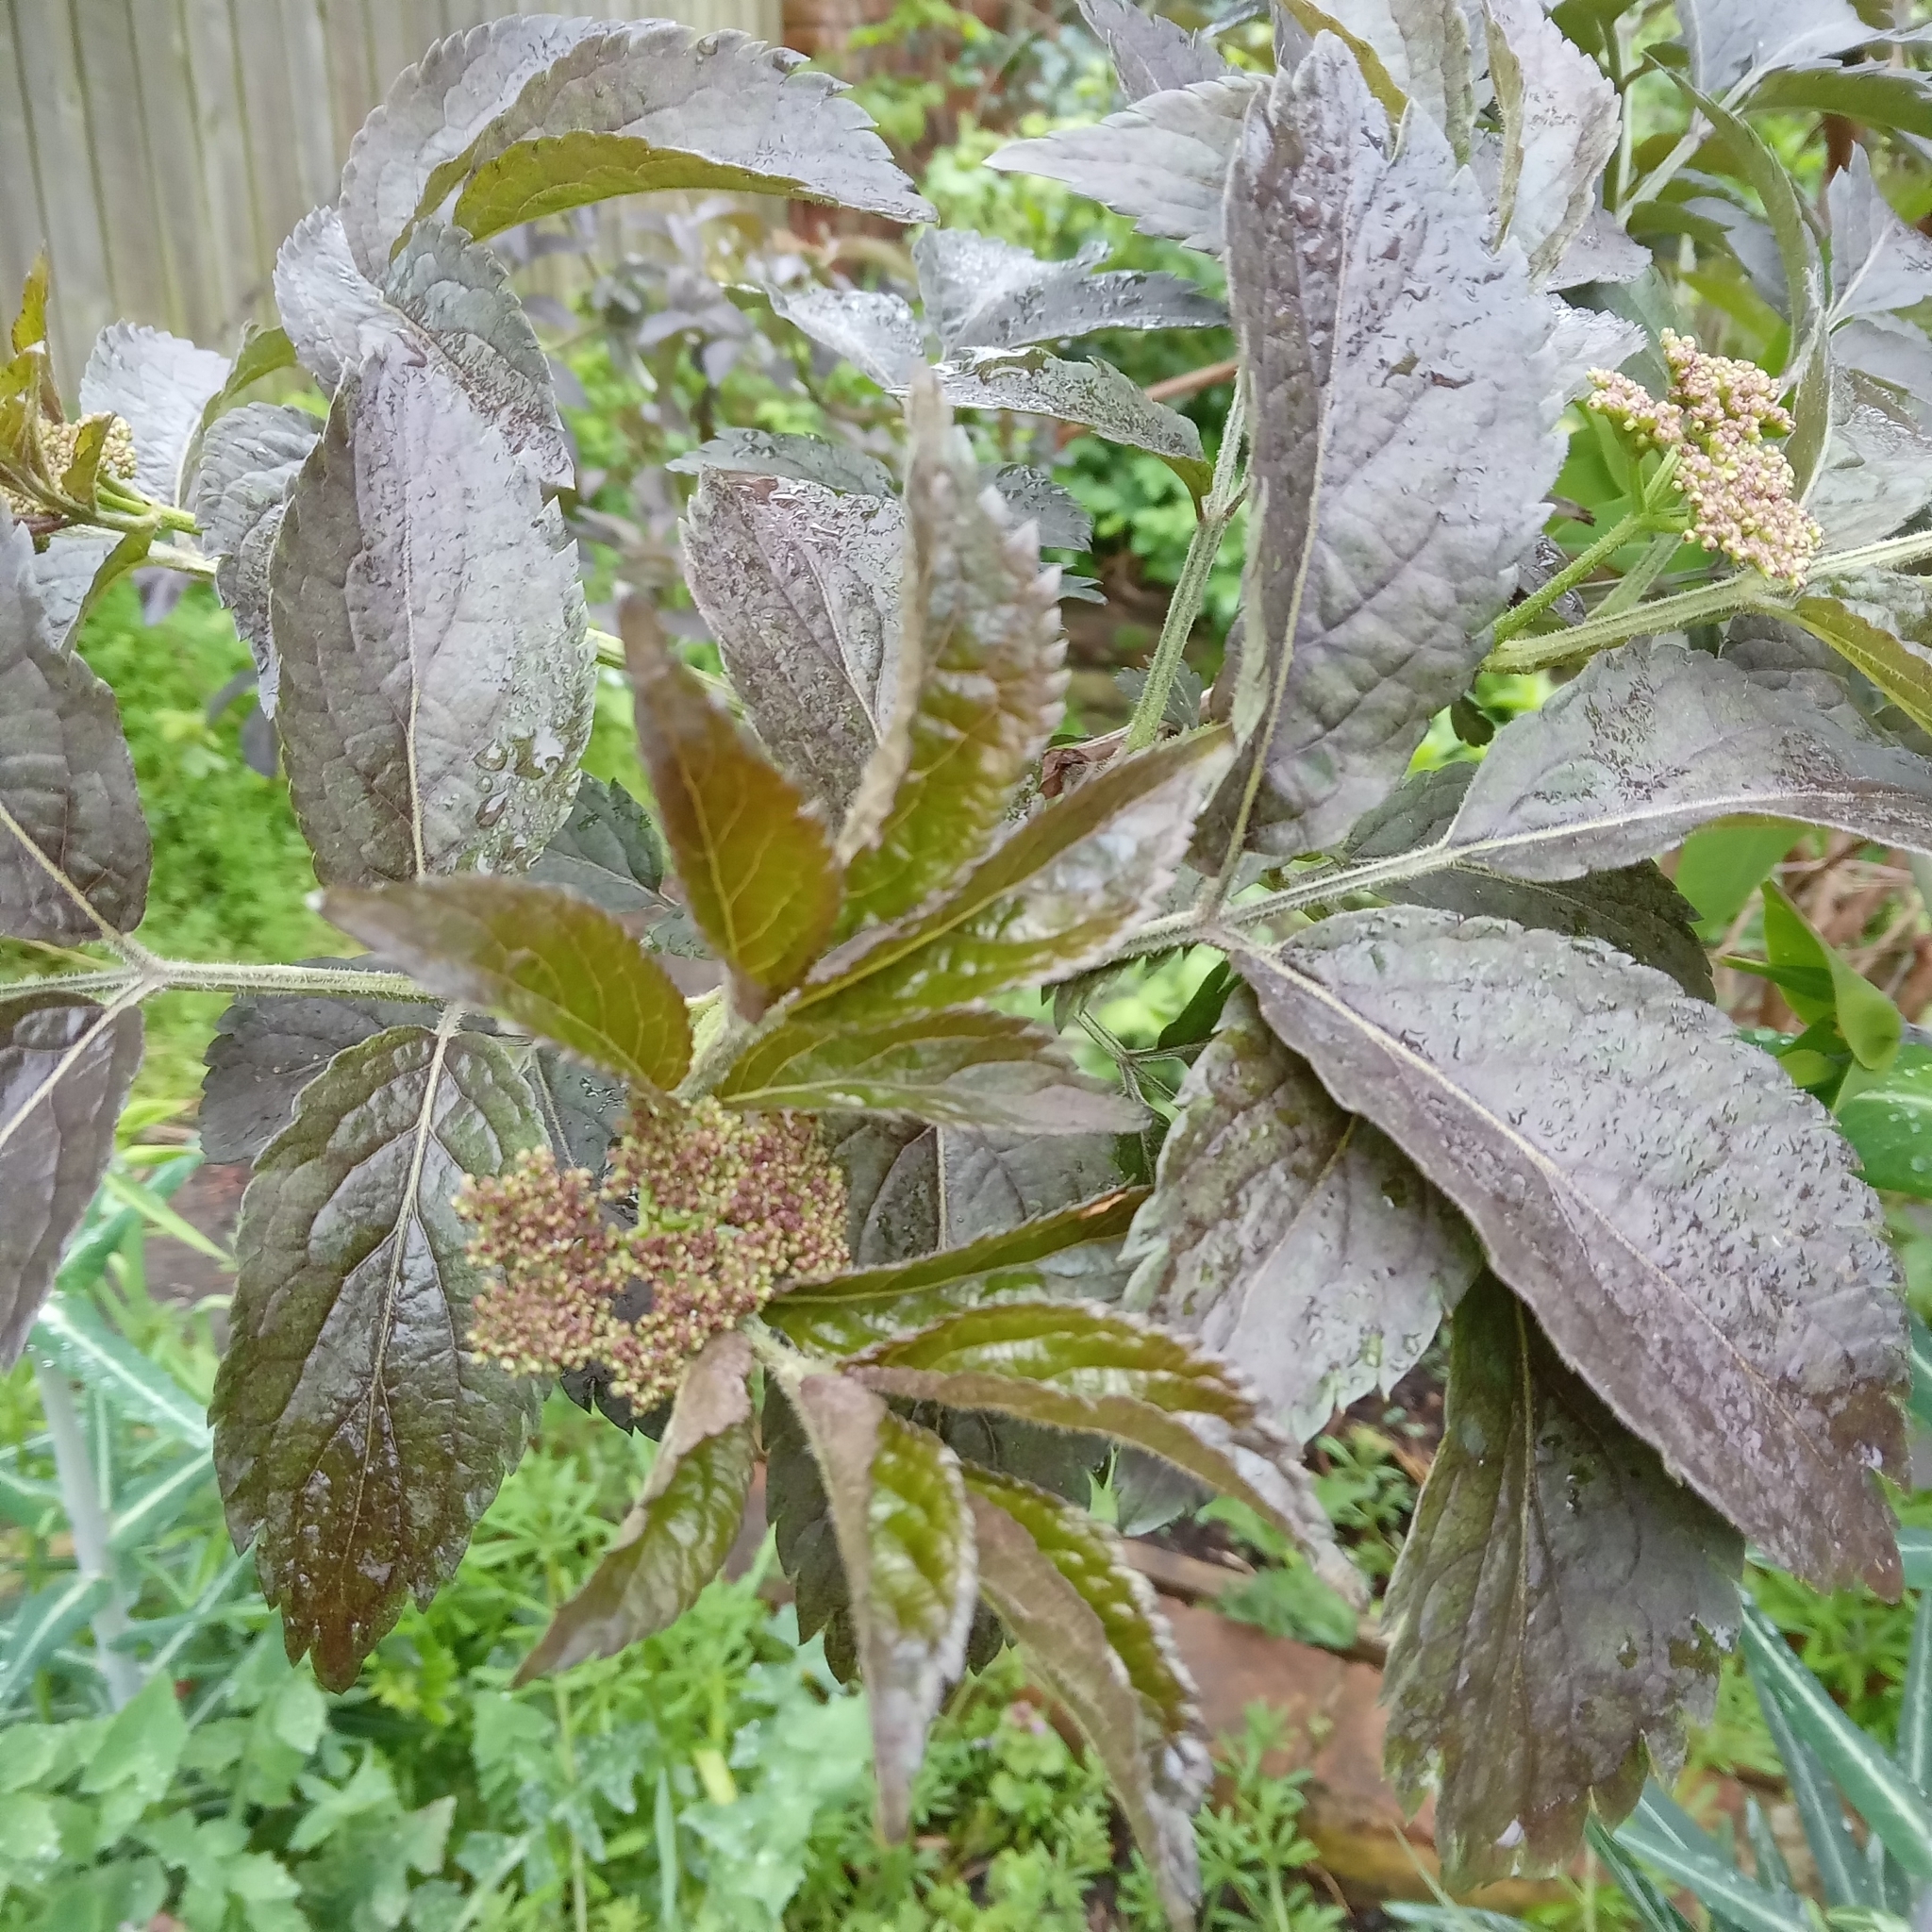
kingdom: Plantae
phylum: Tracheophyta
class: Magnoliopsida
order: Dipsacales
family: Viburnaceae
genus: Sambucus
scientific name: Sambucus nigra
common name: Elder
